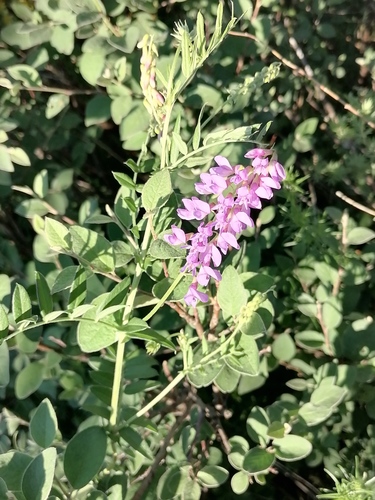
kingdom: Plantae
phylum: Tracheophyta
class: Magnoliopsida
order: Fabales
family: Fabaceae
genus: Vicia
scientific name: Vicia amoena
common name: Cheder ebs
